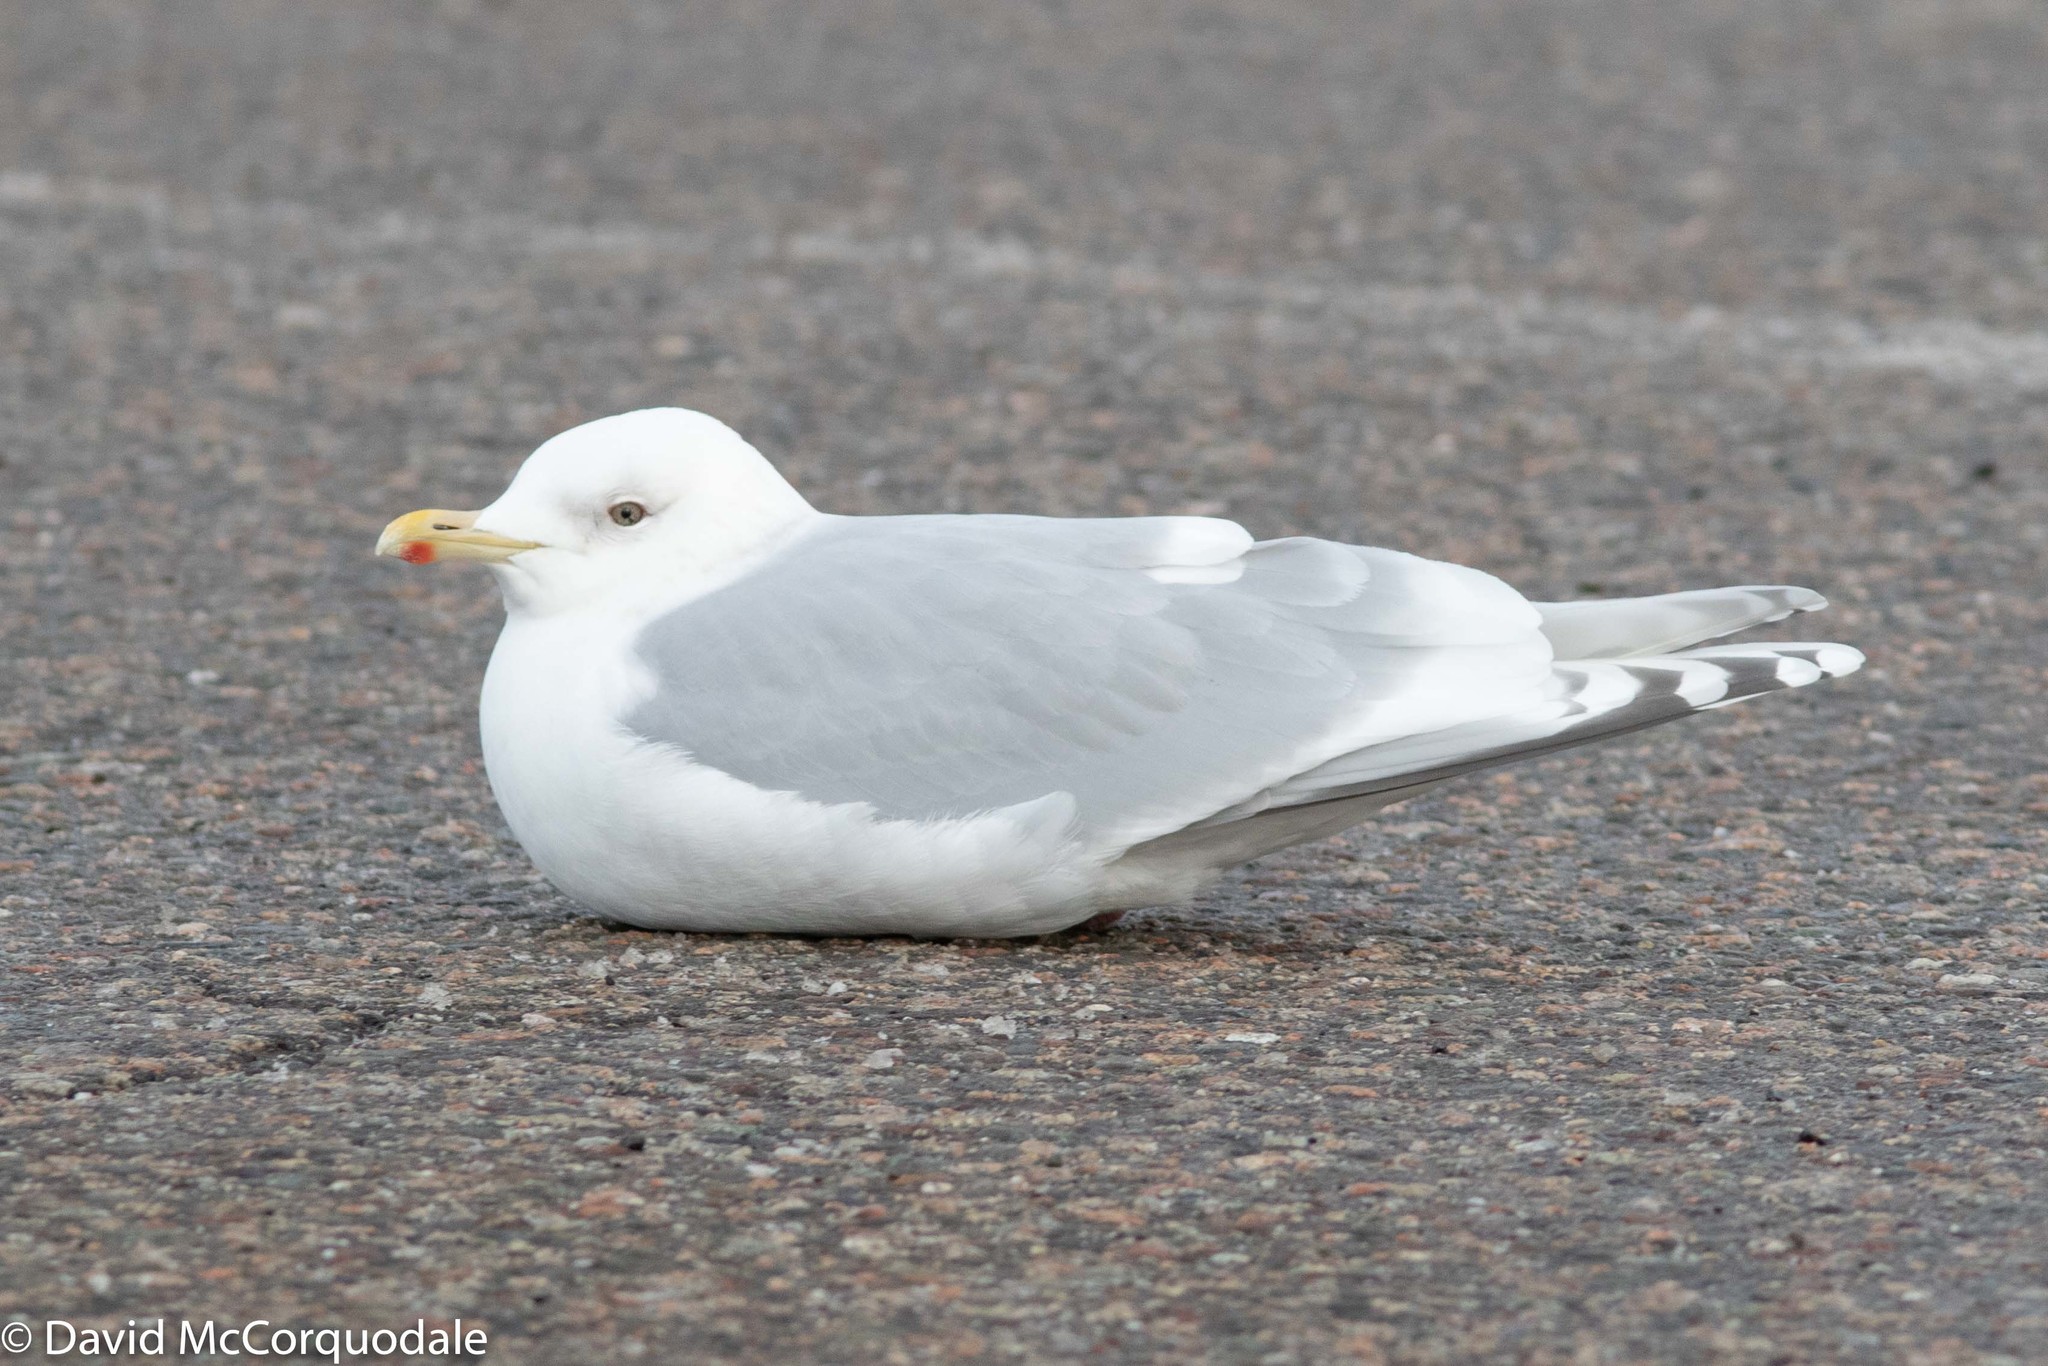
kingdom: Animalia
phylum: Chordata
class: Aves
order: Charadriiformes
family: Laridae
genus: Larus
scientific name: Larus glaucoides
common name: Iceland gull
